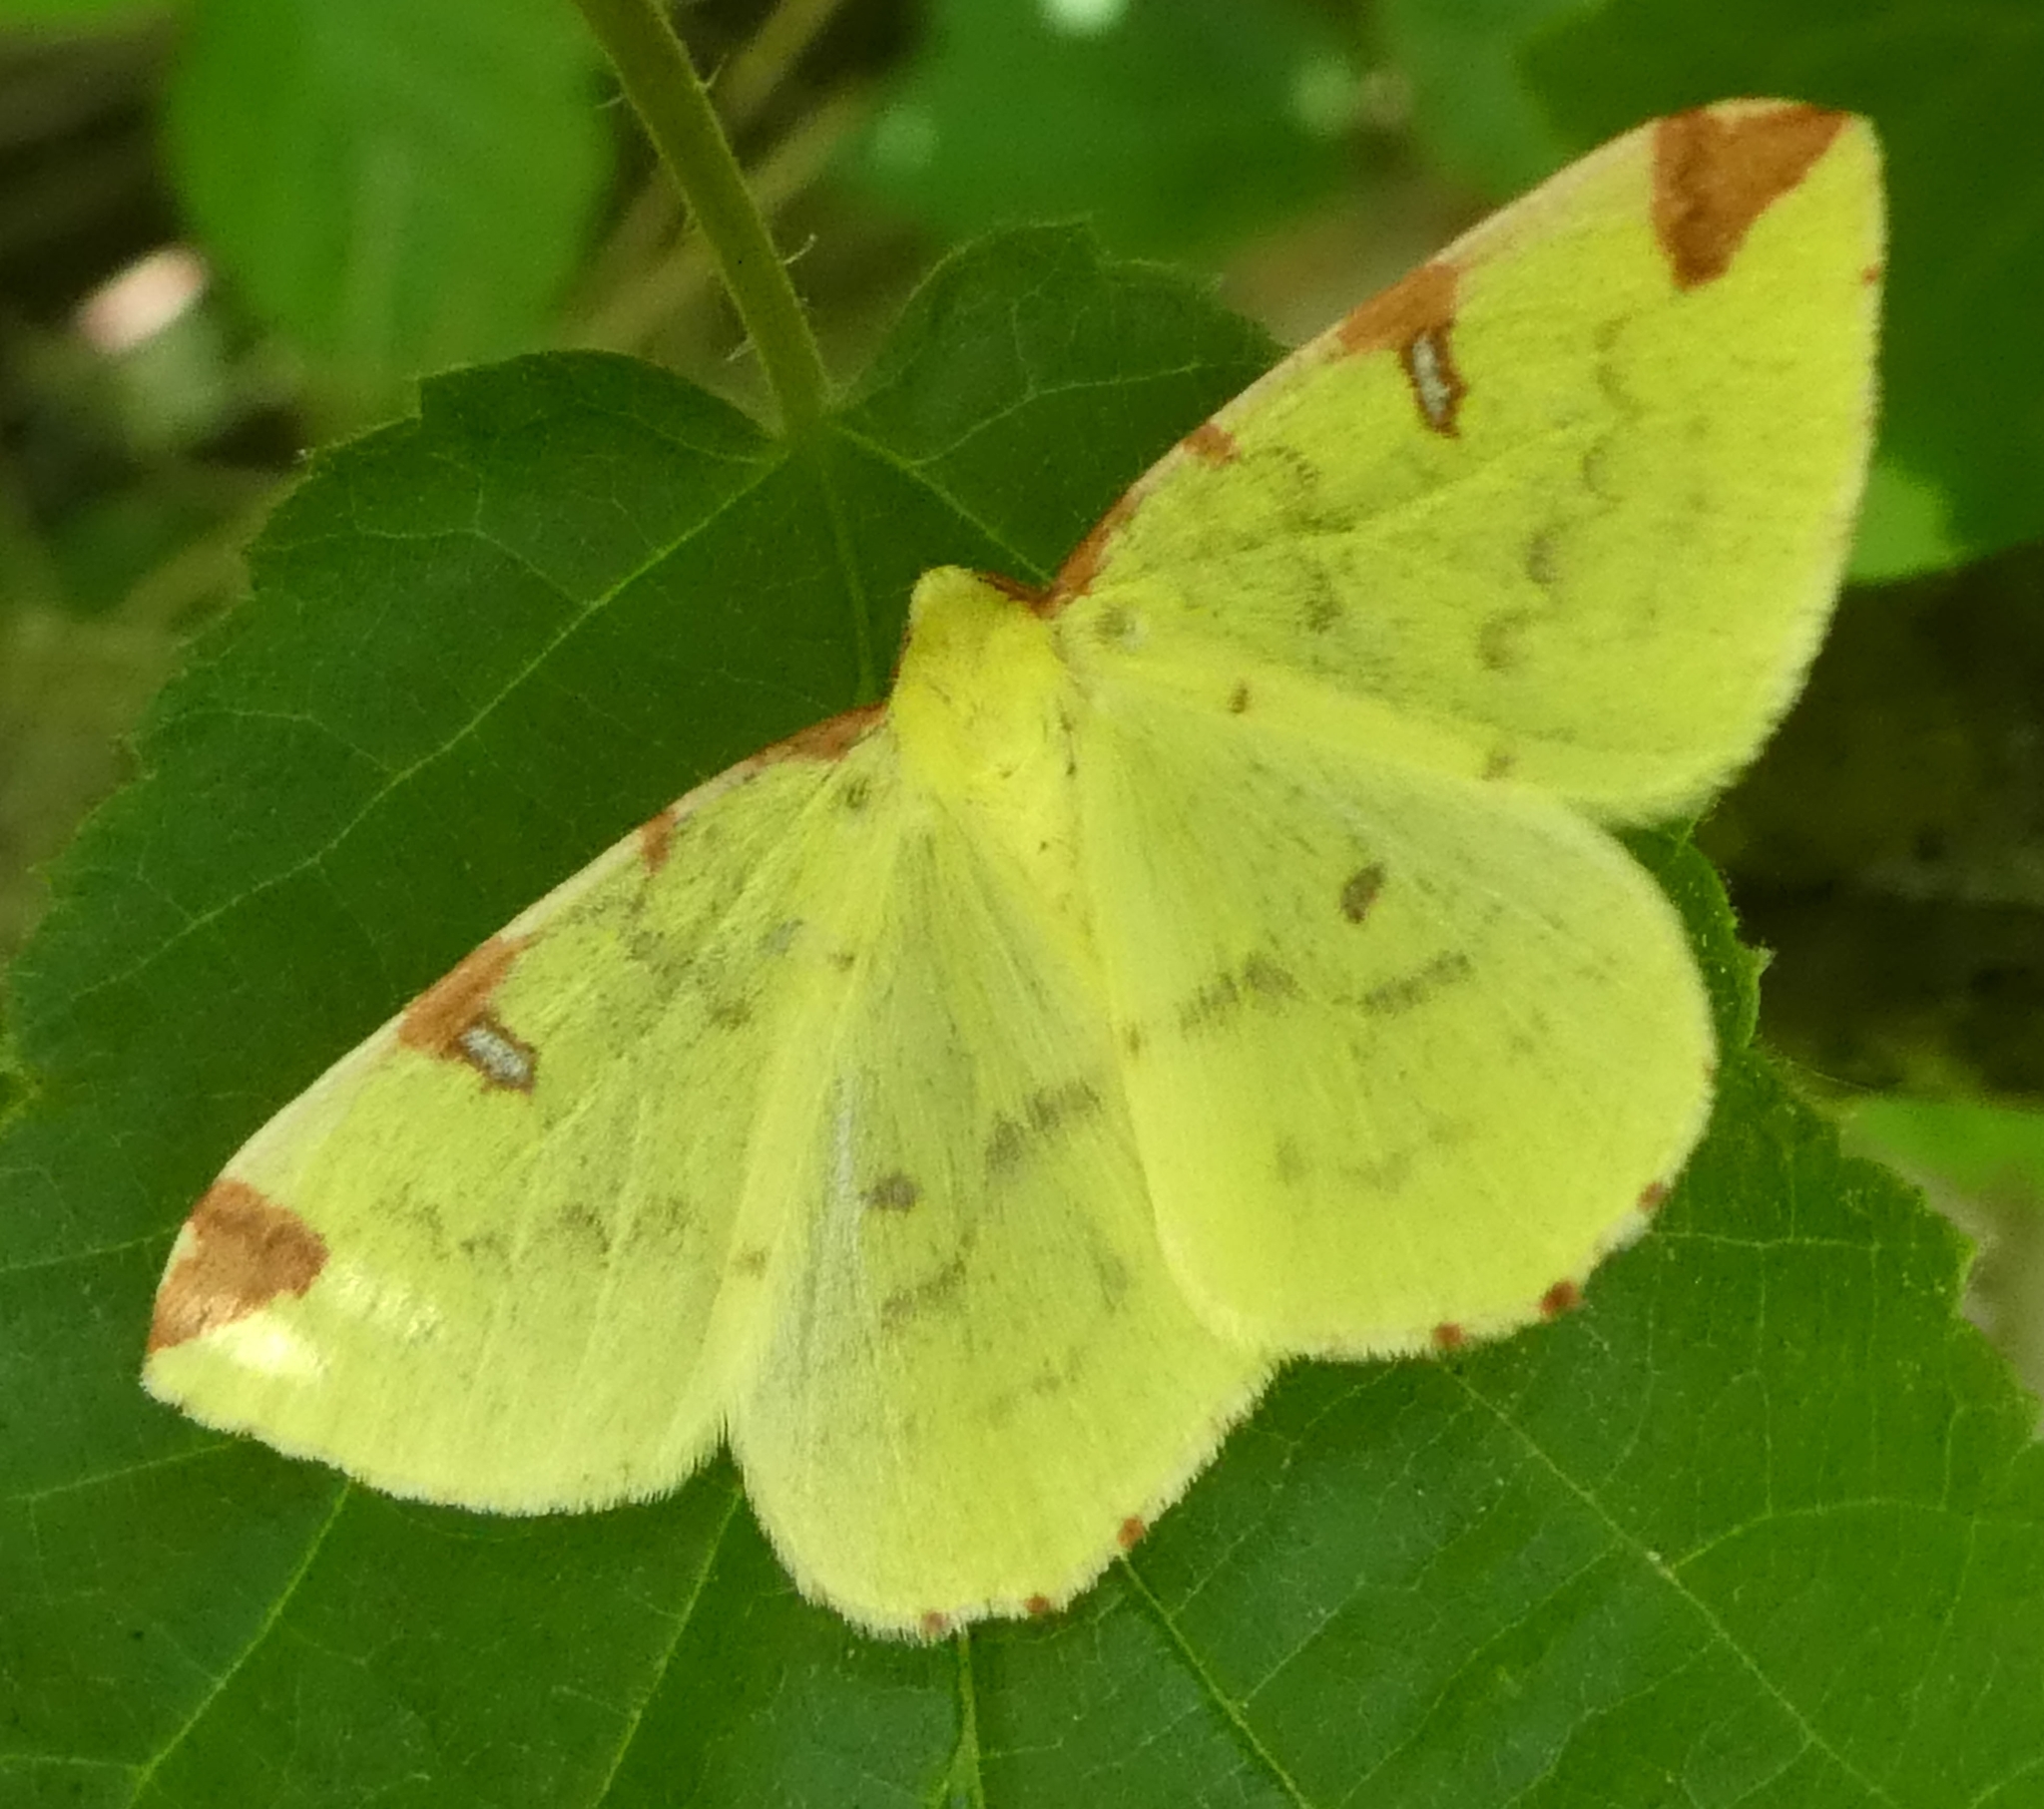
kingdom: Animalia
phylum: Arthropoda
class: Insecta
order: Lepidoptera
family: Geometridae
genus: Opisthograptis
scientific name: Opisthograptis luteolata
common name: Brimstone moth
